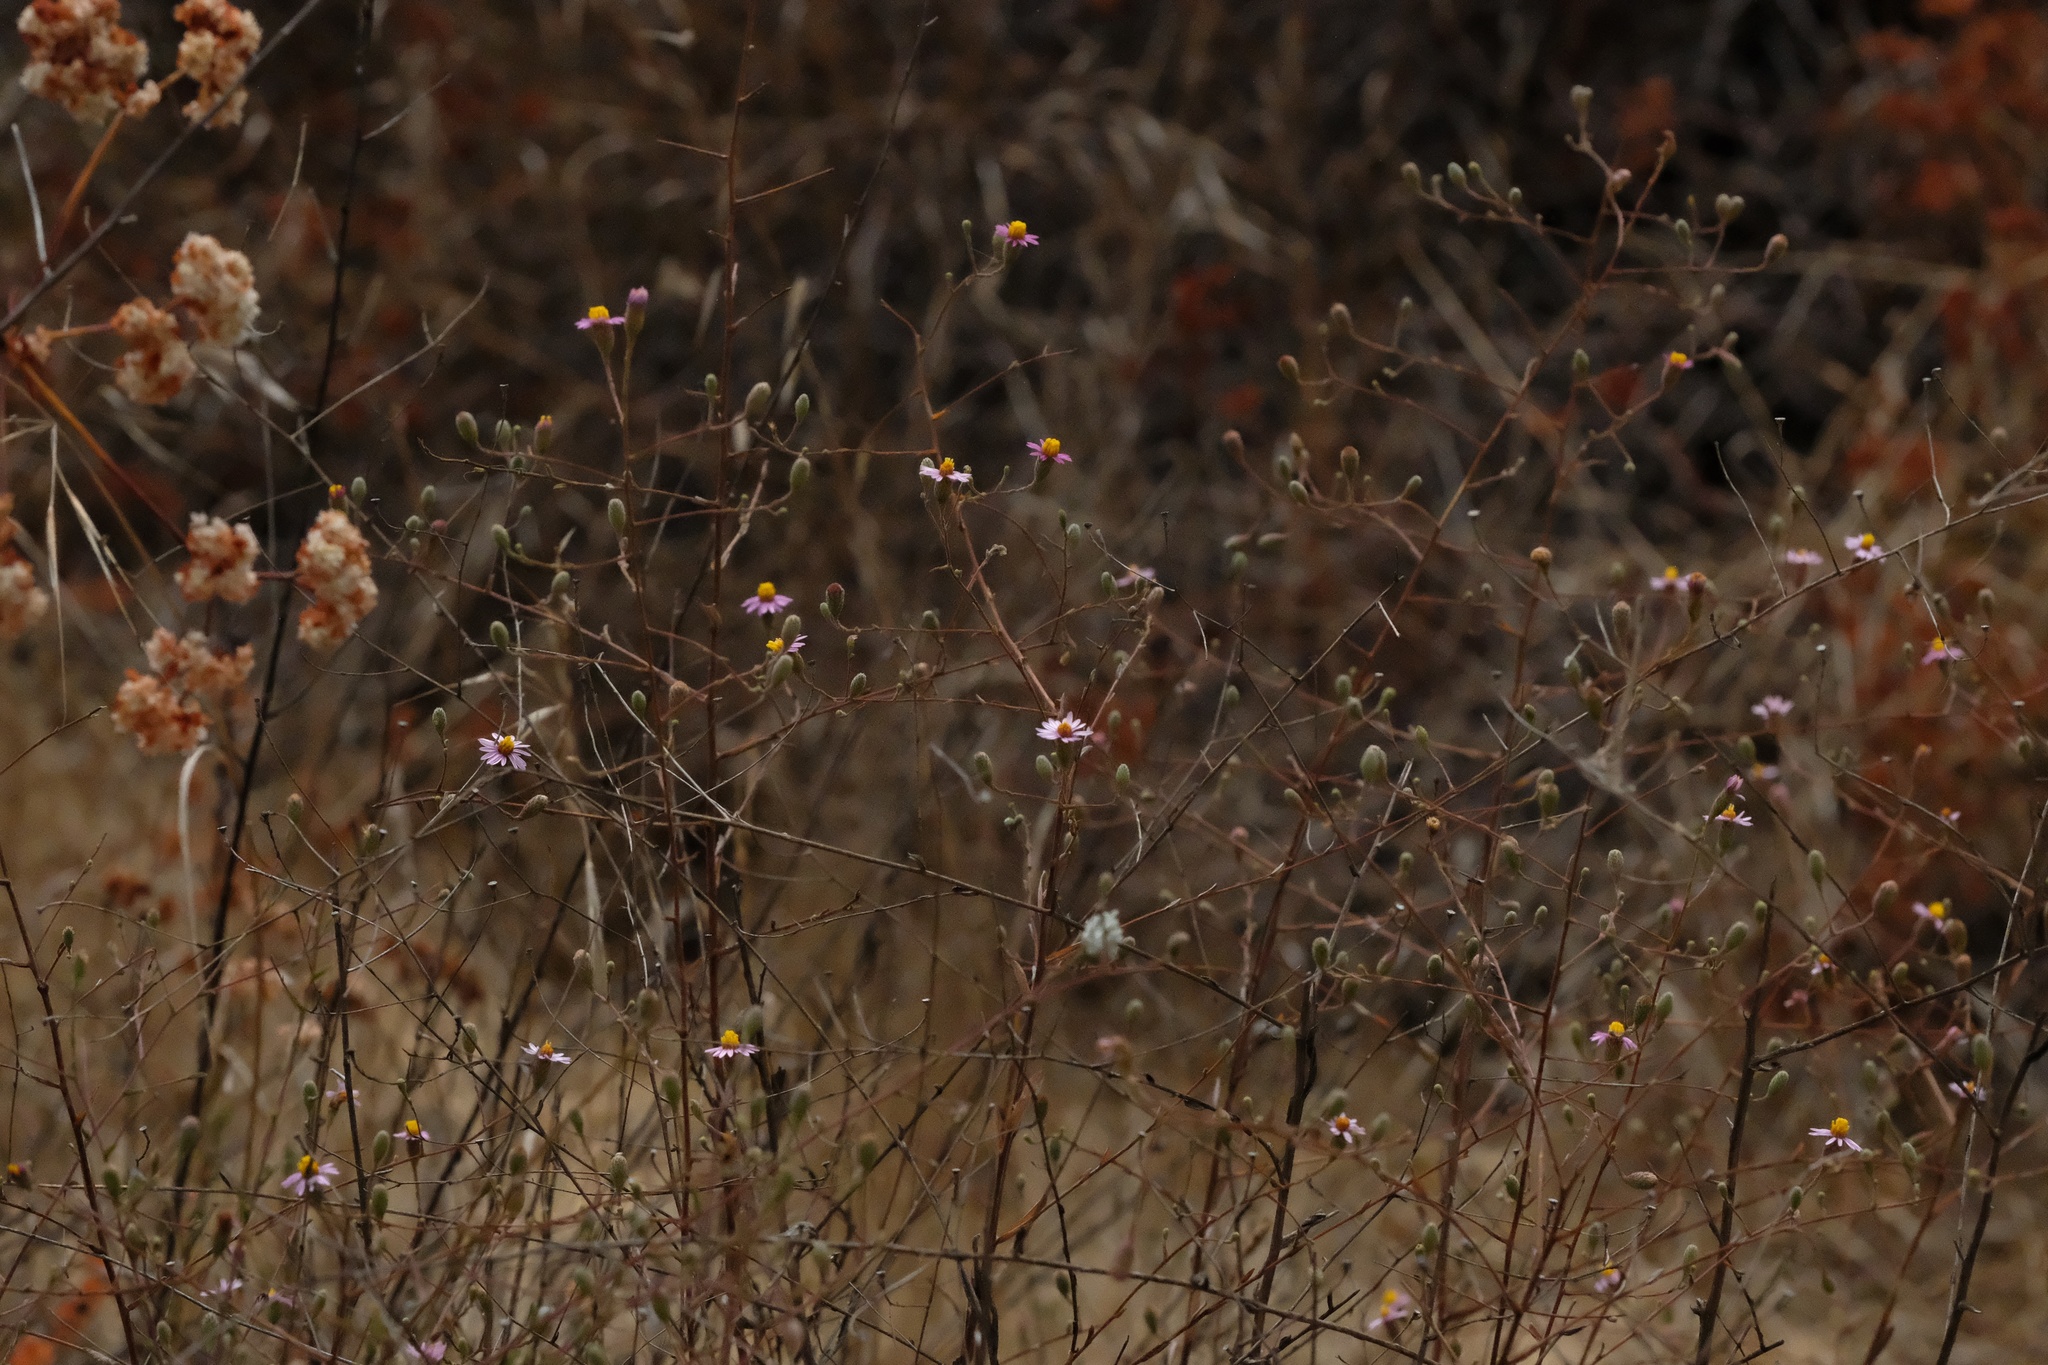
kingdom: Plantae
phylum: Tracheophyta
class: Magnoliopsida
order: Asterales
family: Asteraceae
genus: Corethrogyne
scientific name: Corethrogyne filaginifolia
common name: Sand-aster
